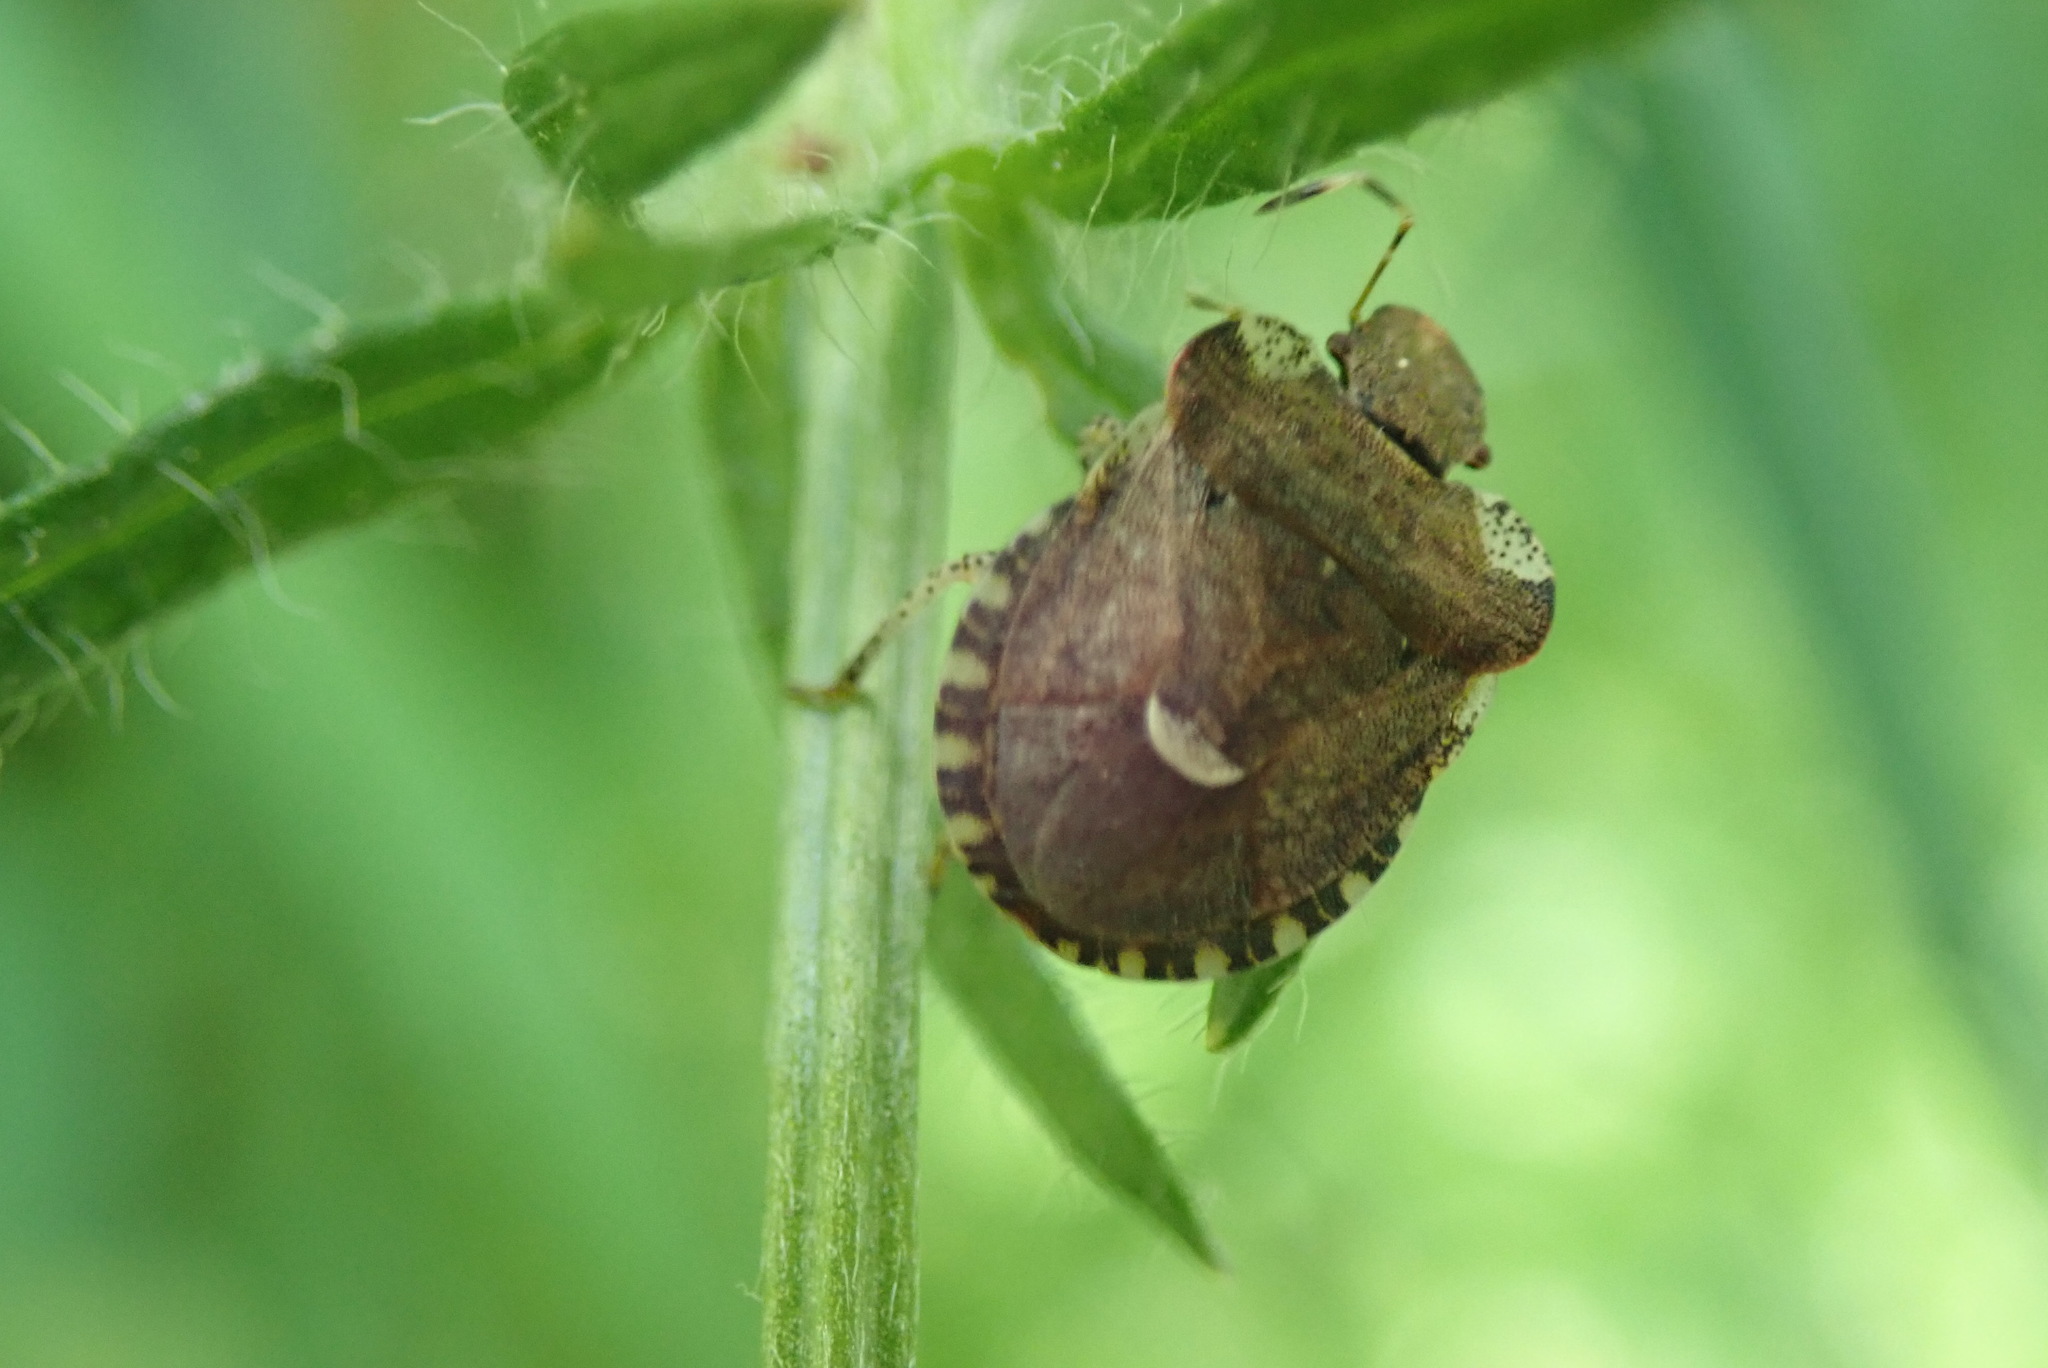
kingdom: Animalia
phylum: Arthropoda
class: Insecta
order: Hemiptera
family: Pentatomidae
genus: Dyroderes
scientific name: Dyroderes umbraculatus
